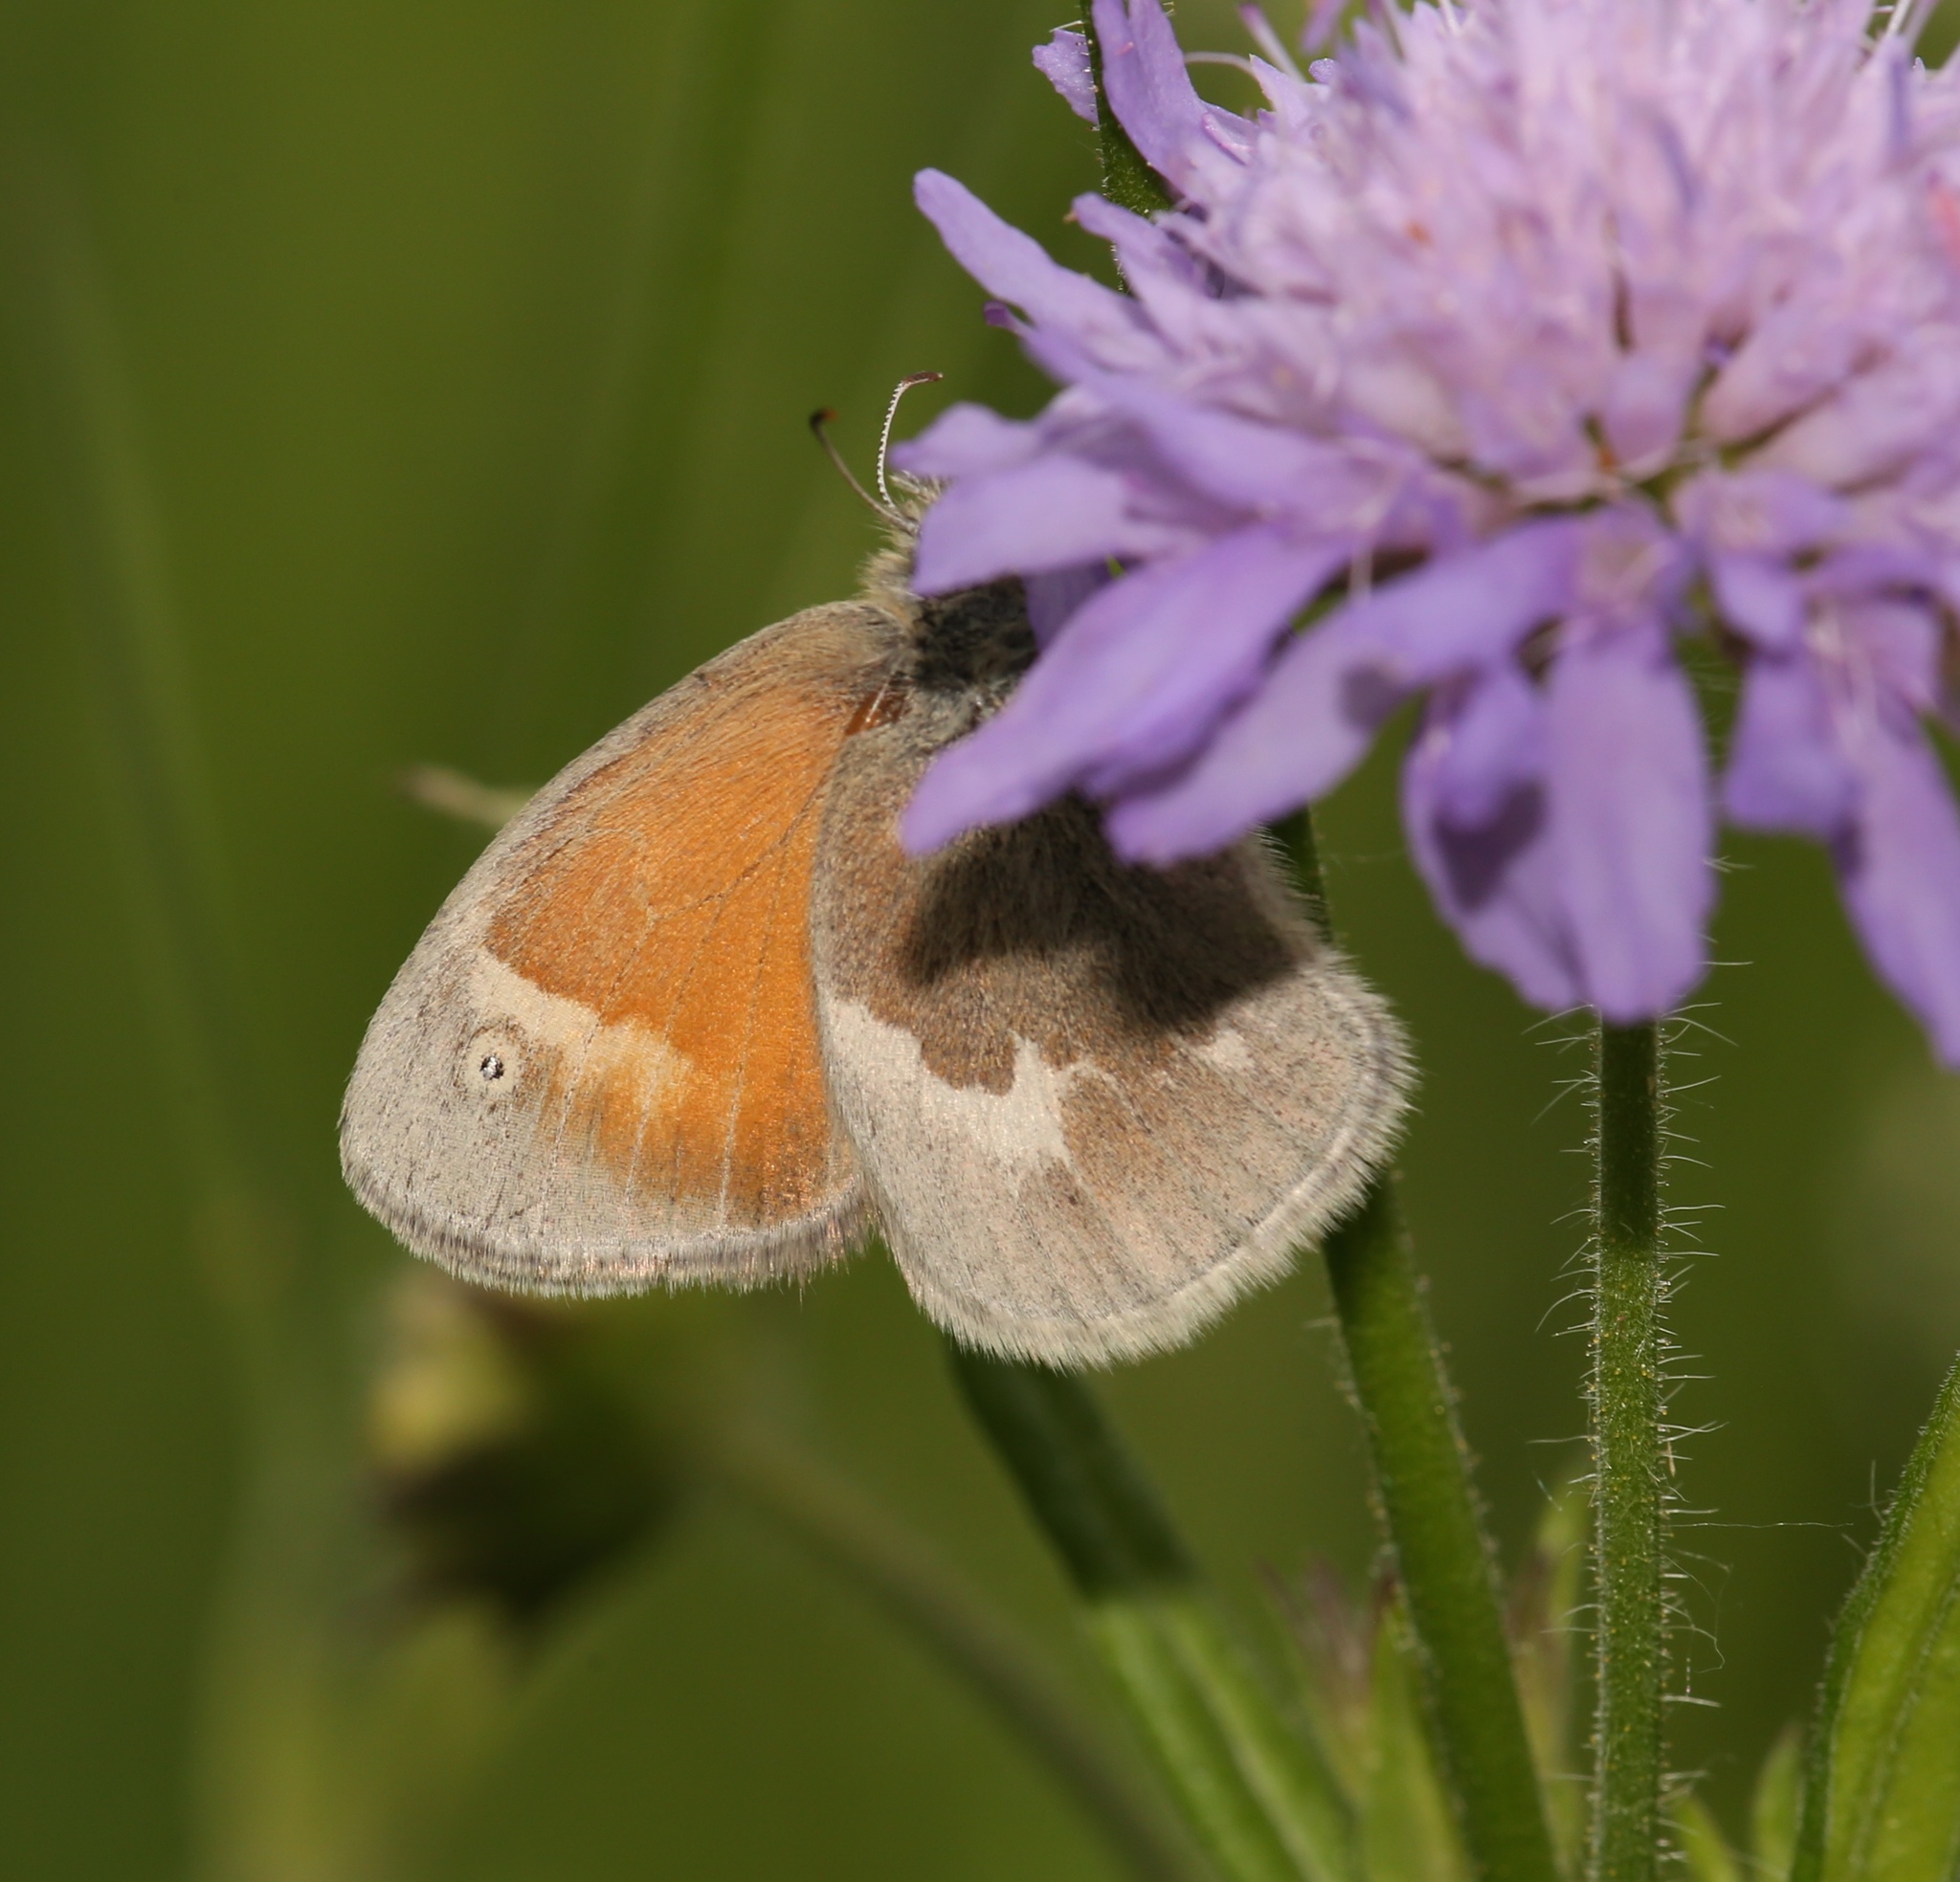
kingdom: Animalia
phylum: Arthropoda
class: Insecta
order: Lepidoptera
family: Nymphalidae
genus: Coenonympha
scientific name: Coenonympha california
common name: Common ringlet
